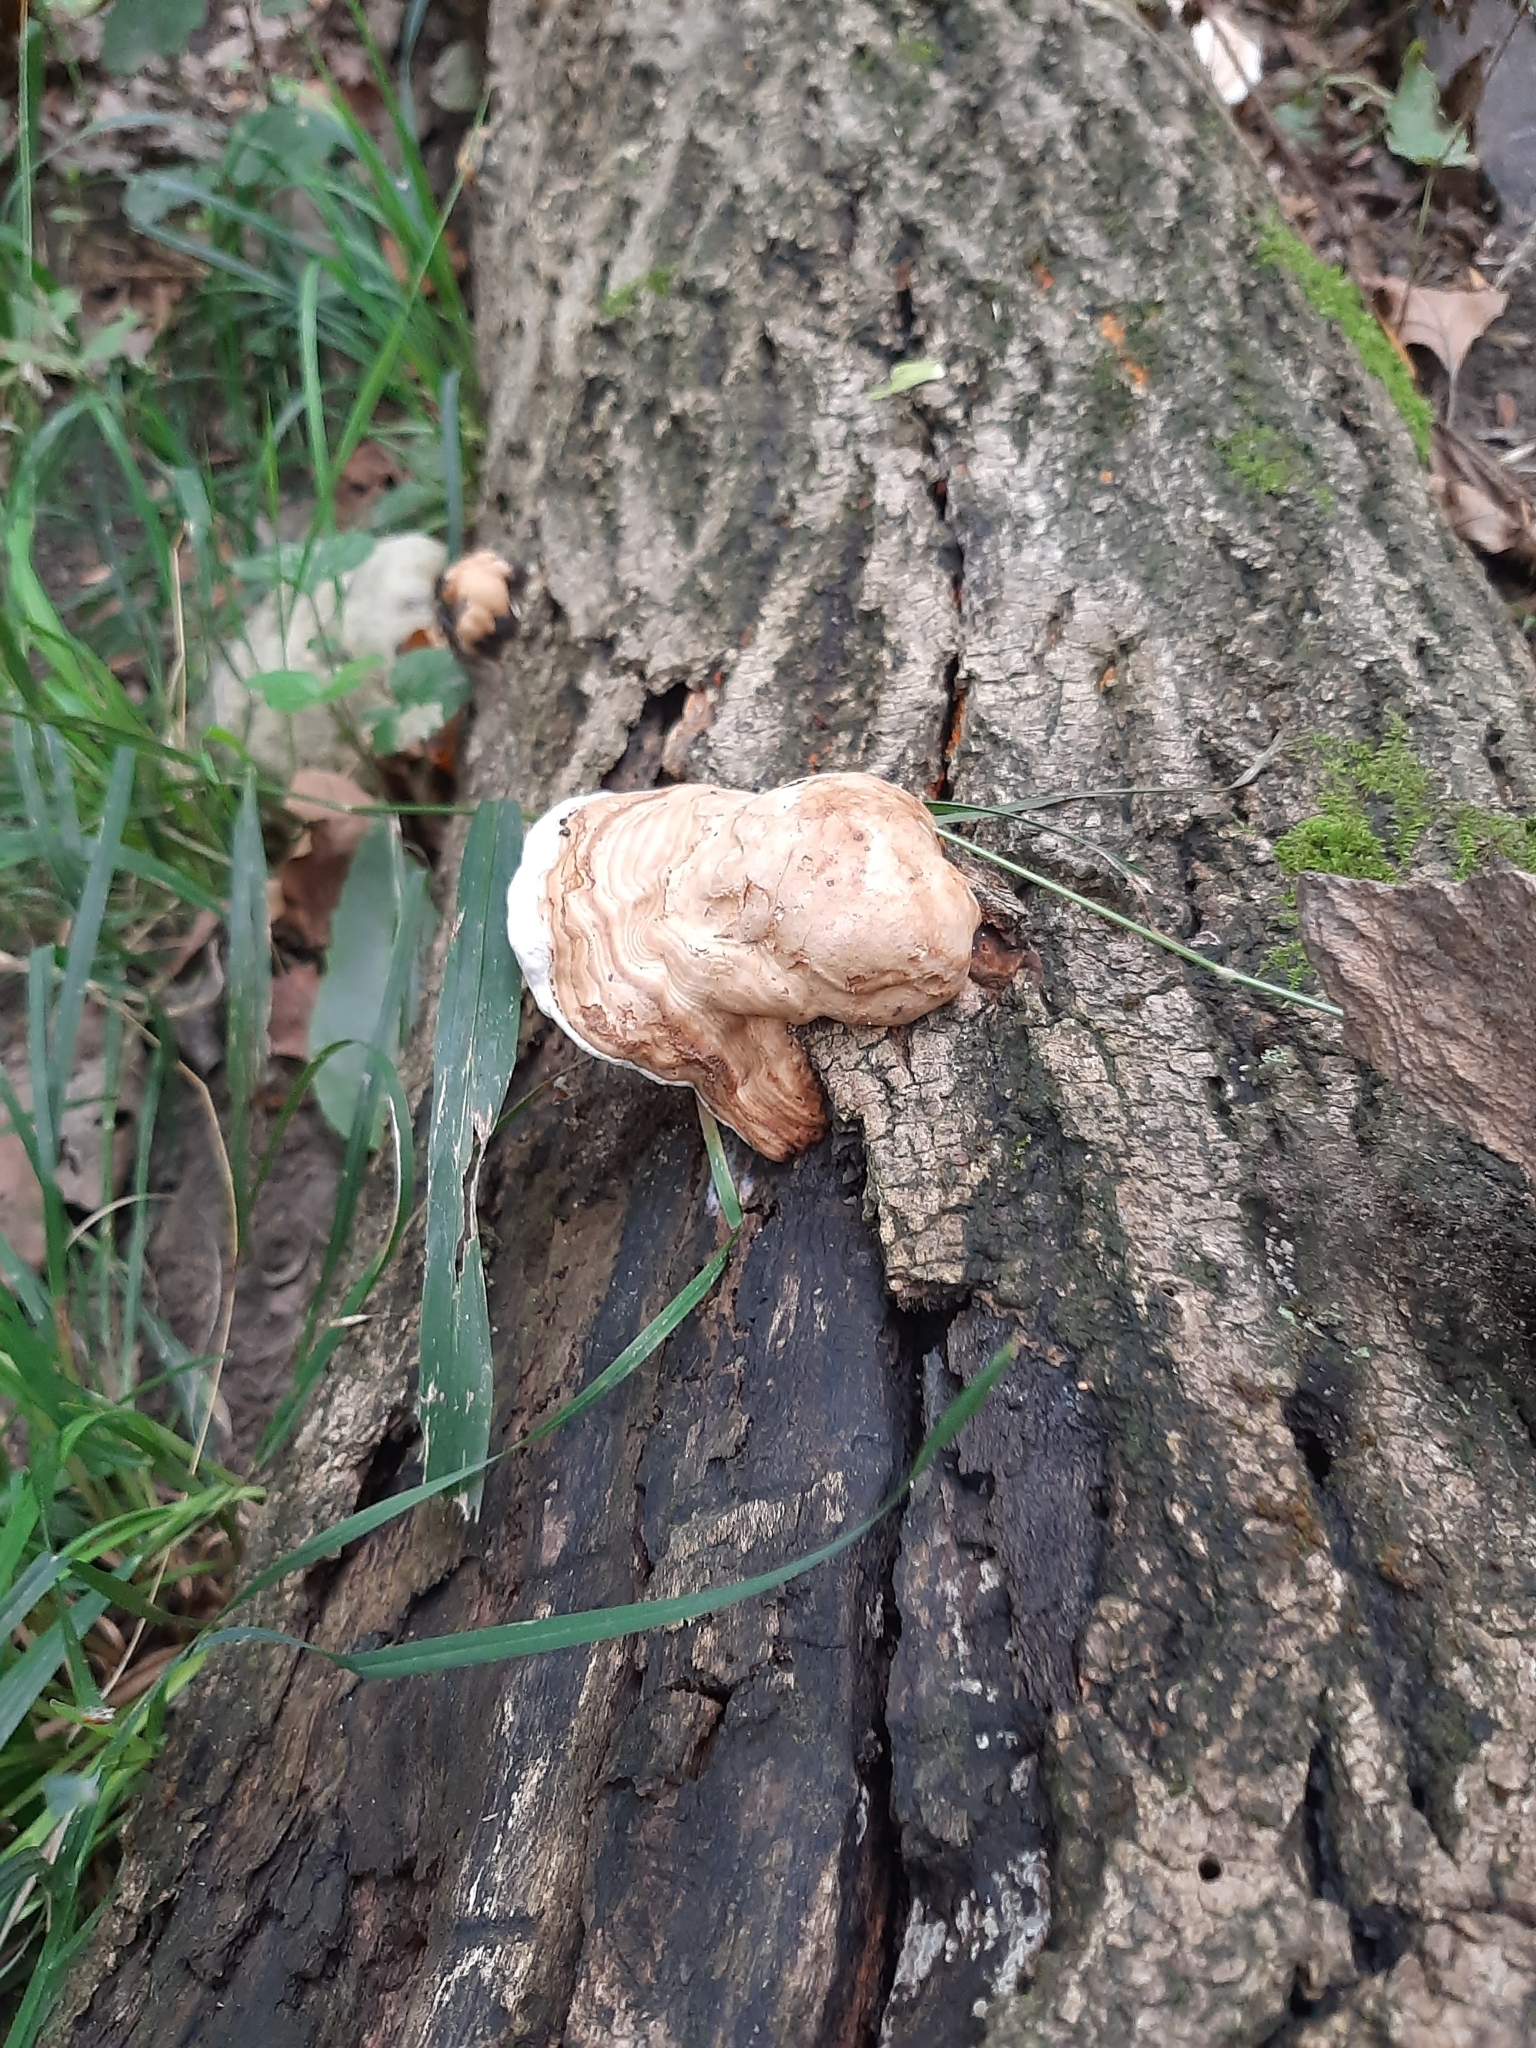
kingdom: Fungi
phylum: Basidiomycota
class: Agaricomycetes
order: Polyporales
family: Polyporaceae
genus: Fomes
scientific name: Fomes
